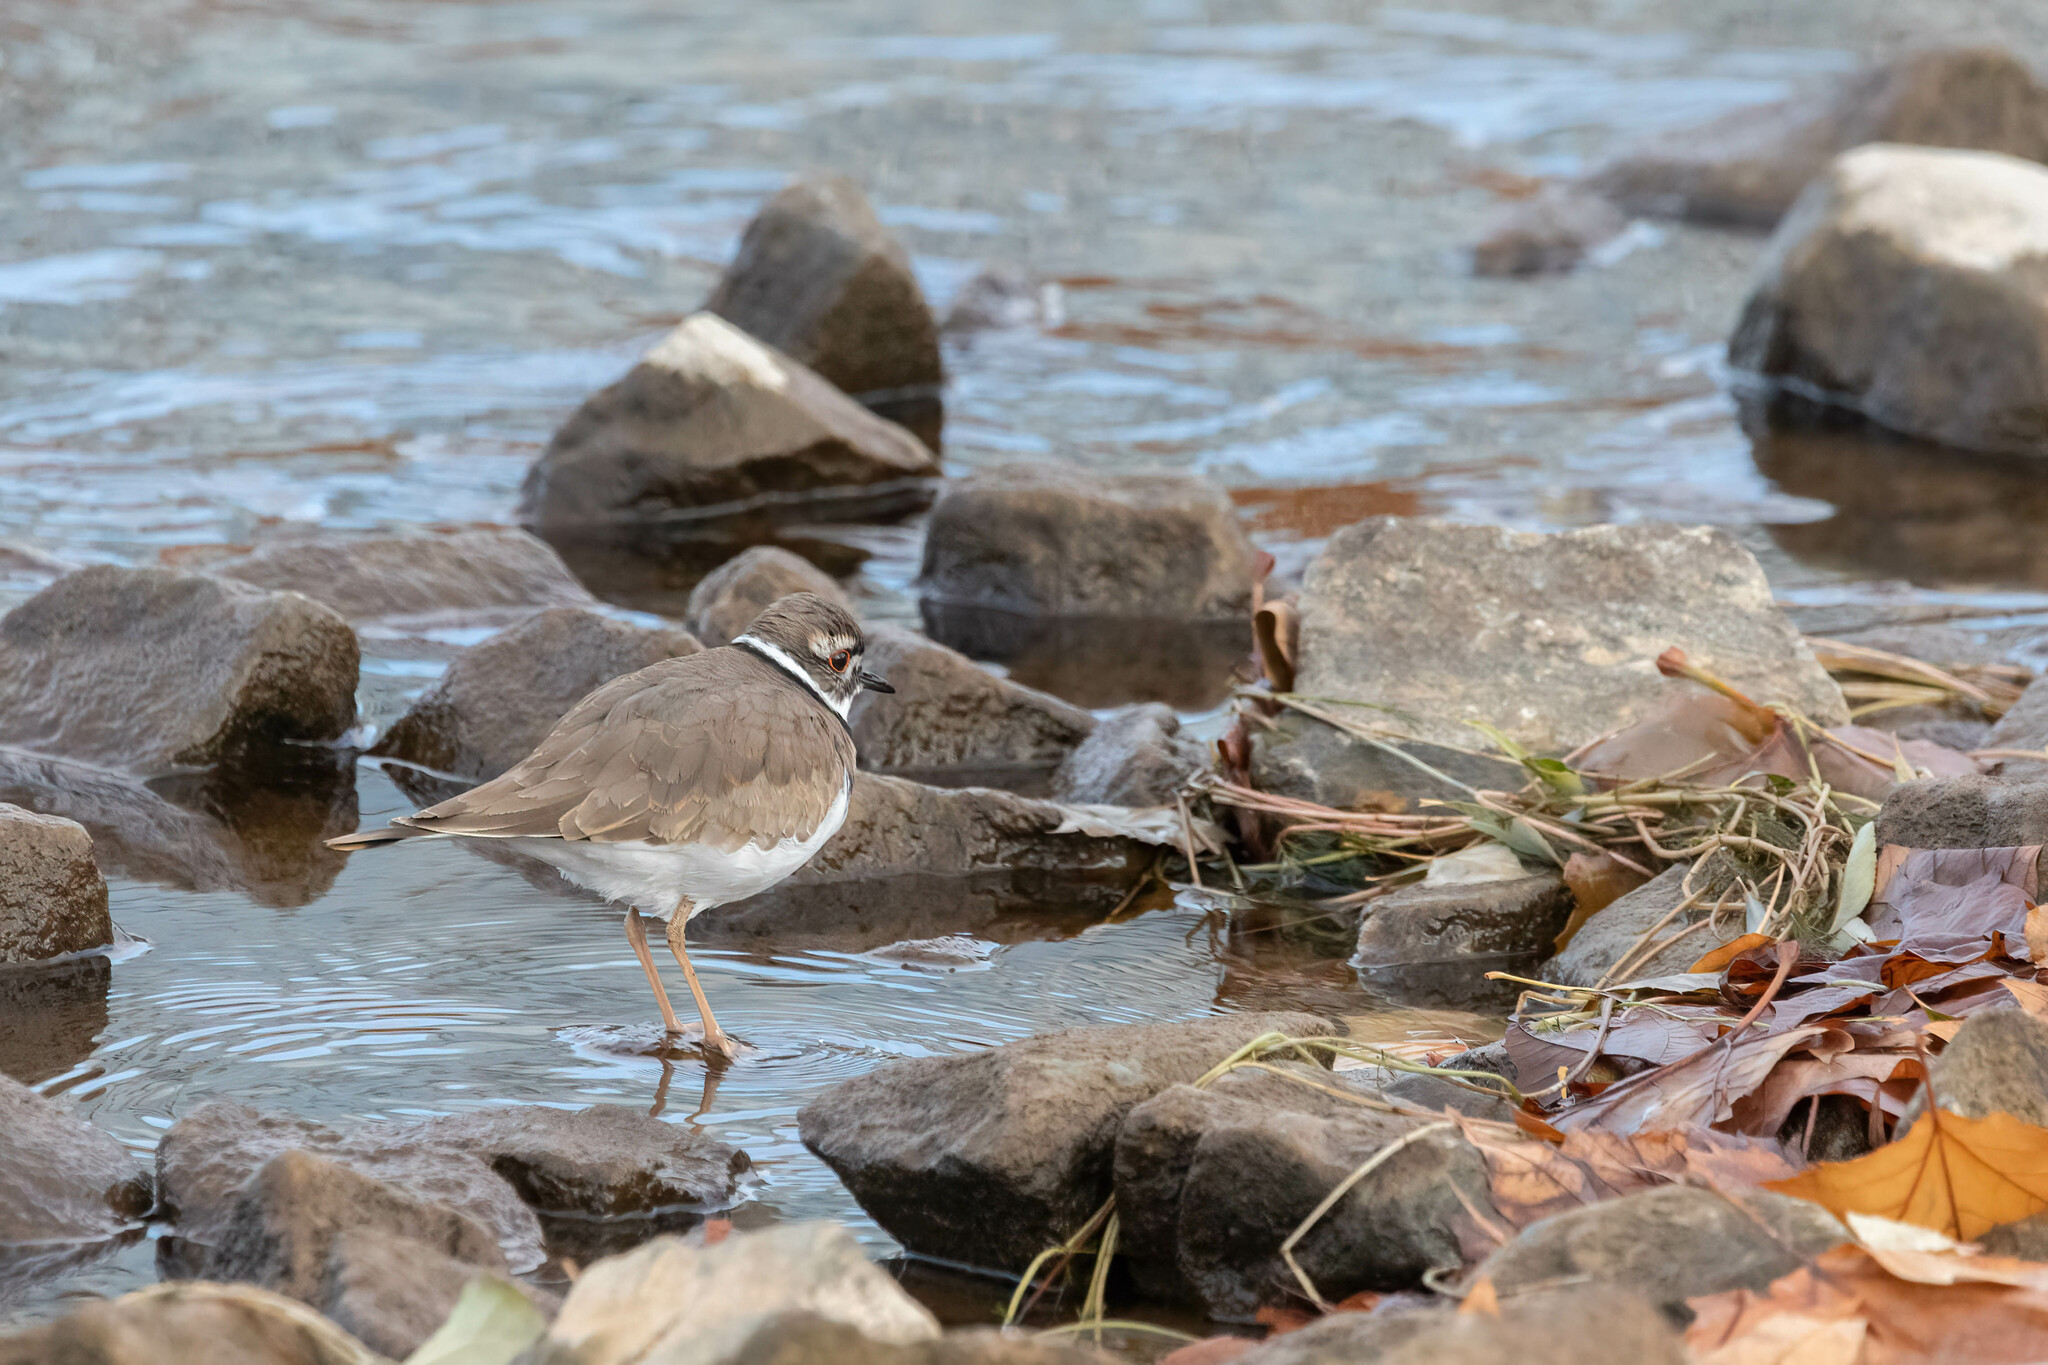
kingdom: Animalia
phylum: Chordata
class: Aves
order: Charadriiformes
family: Charadriidae
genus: Charadrius
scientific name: Charadrius vociferus
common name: Killdeer
